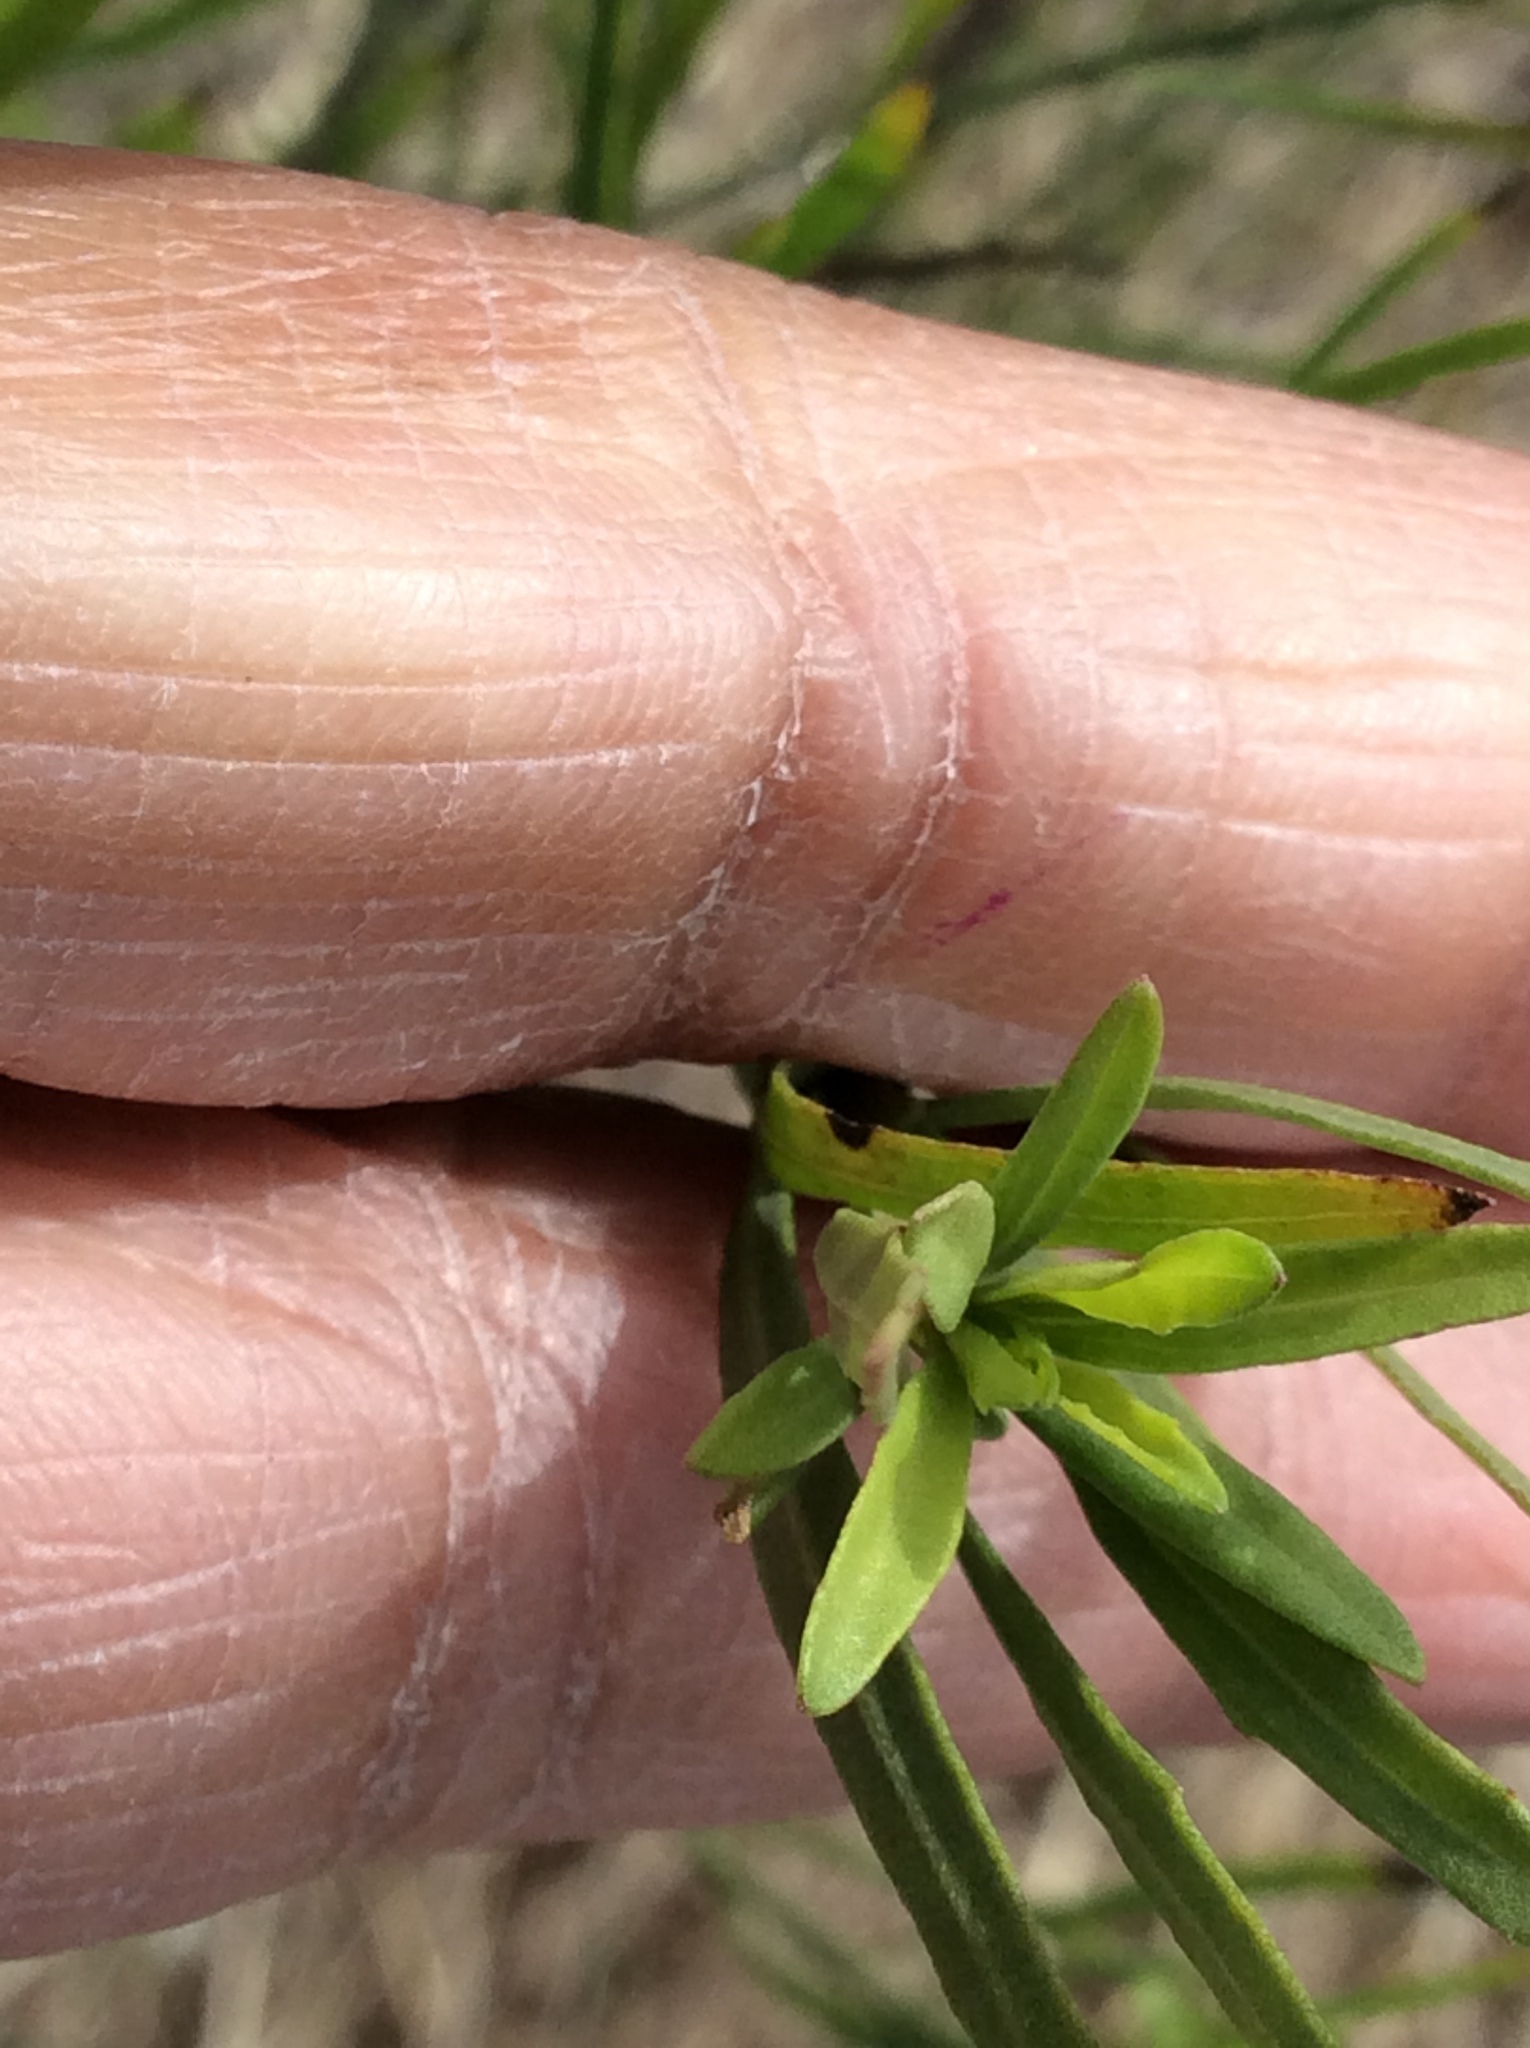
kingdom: Plantae
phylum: Tracheophyta
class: Magnoliopsida
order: Asterales
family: Asteraceae
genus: Baccharis
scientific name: Baccharis neglecta
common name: Roosevelt-weed
